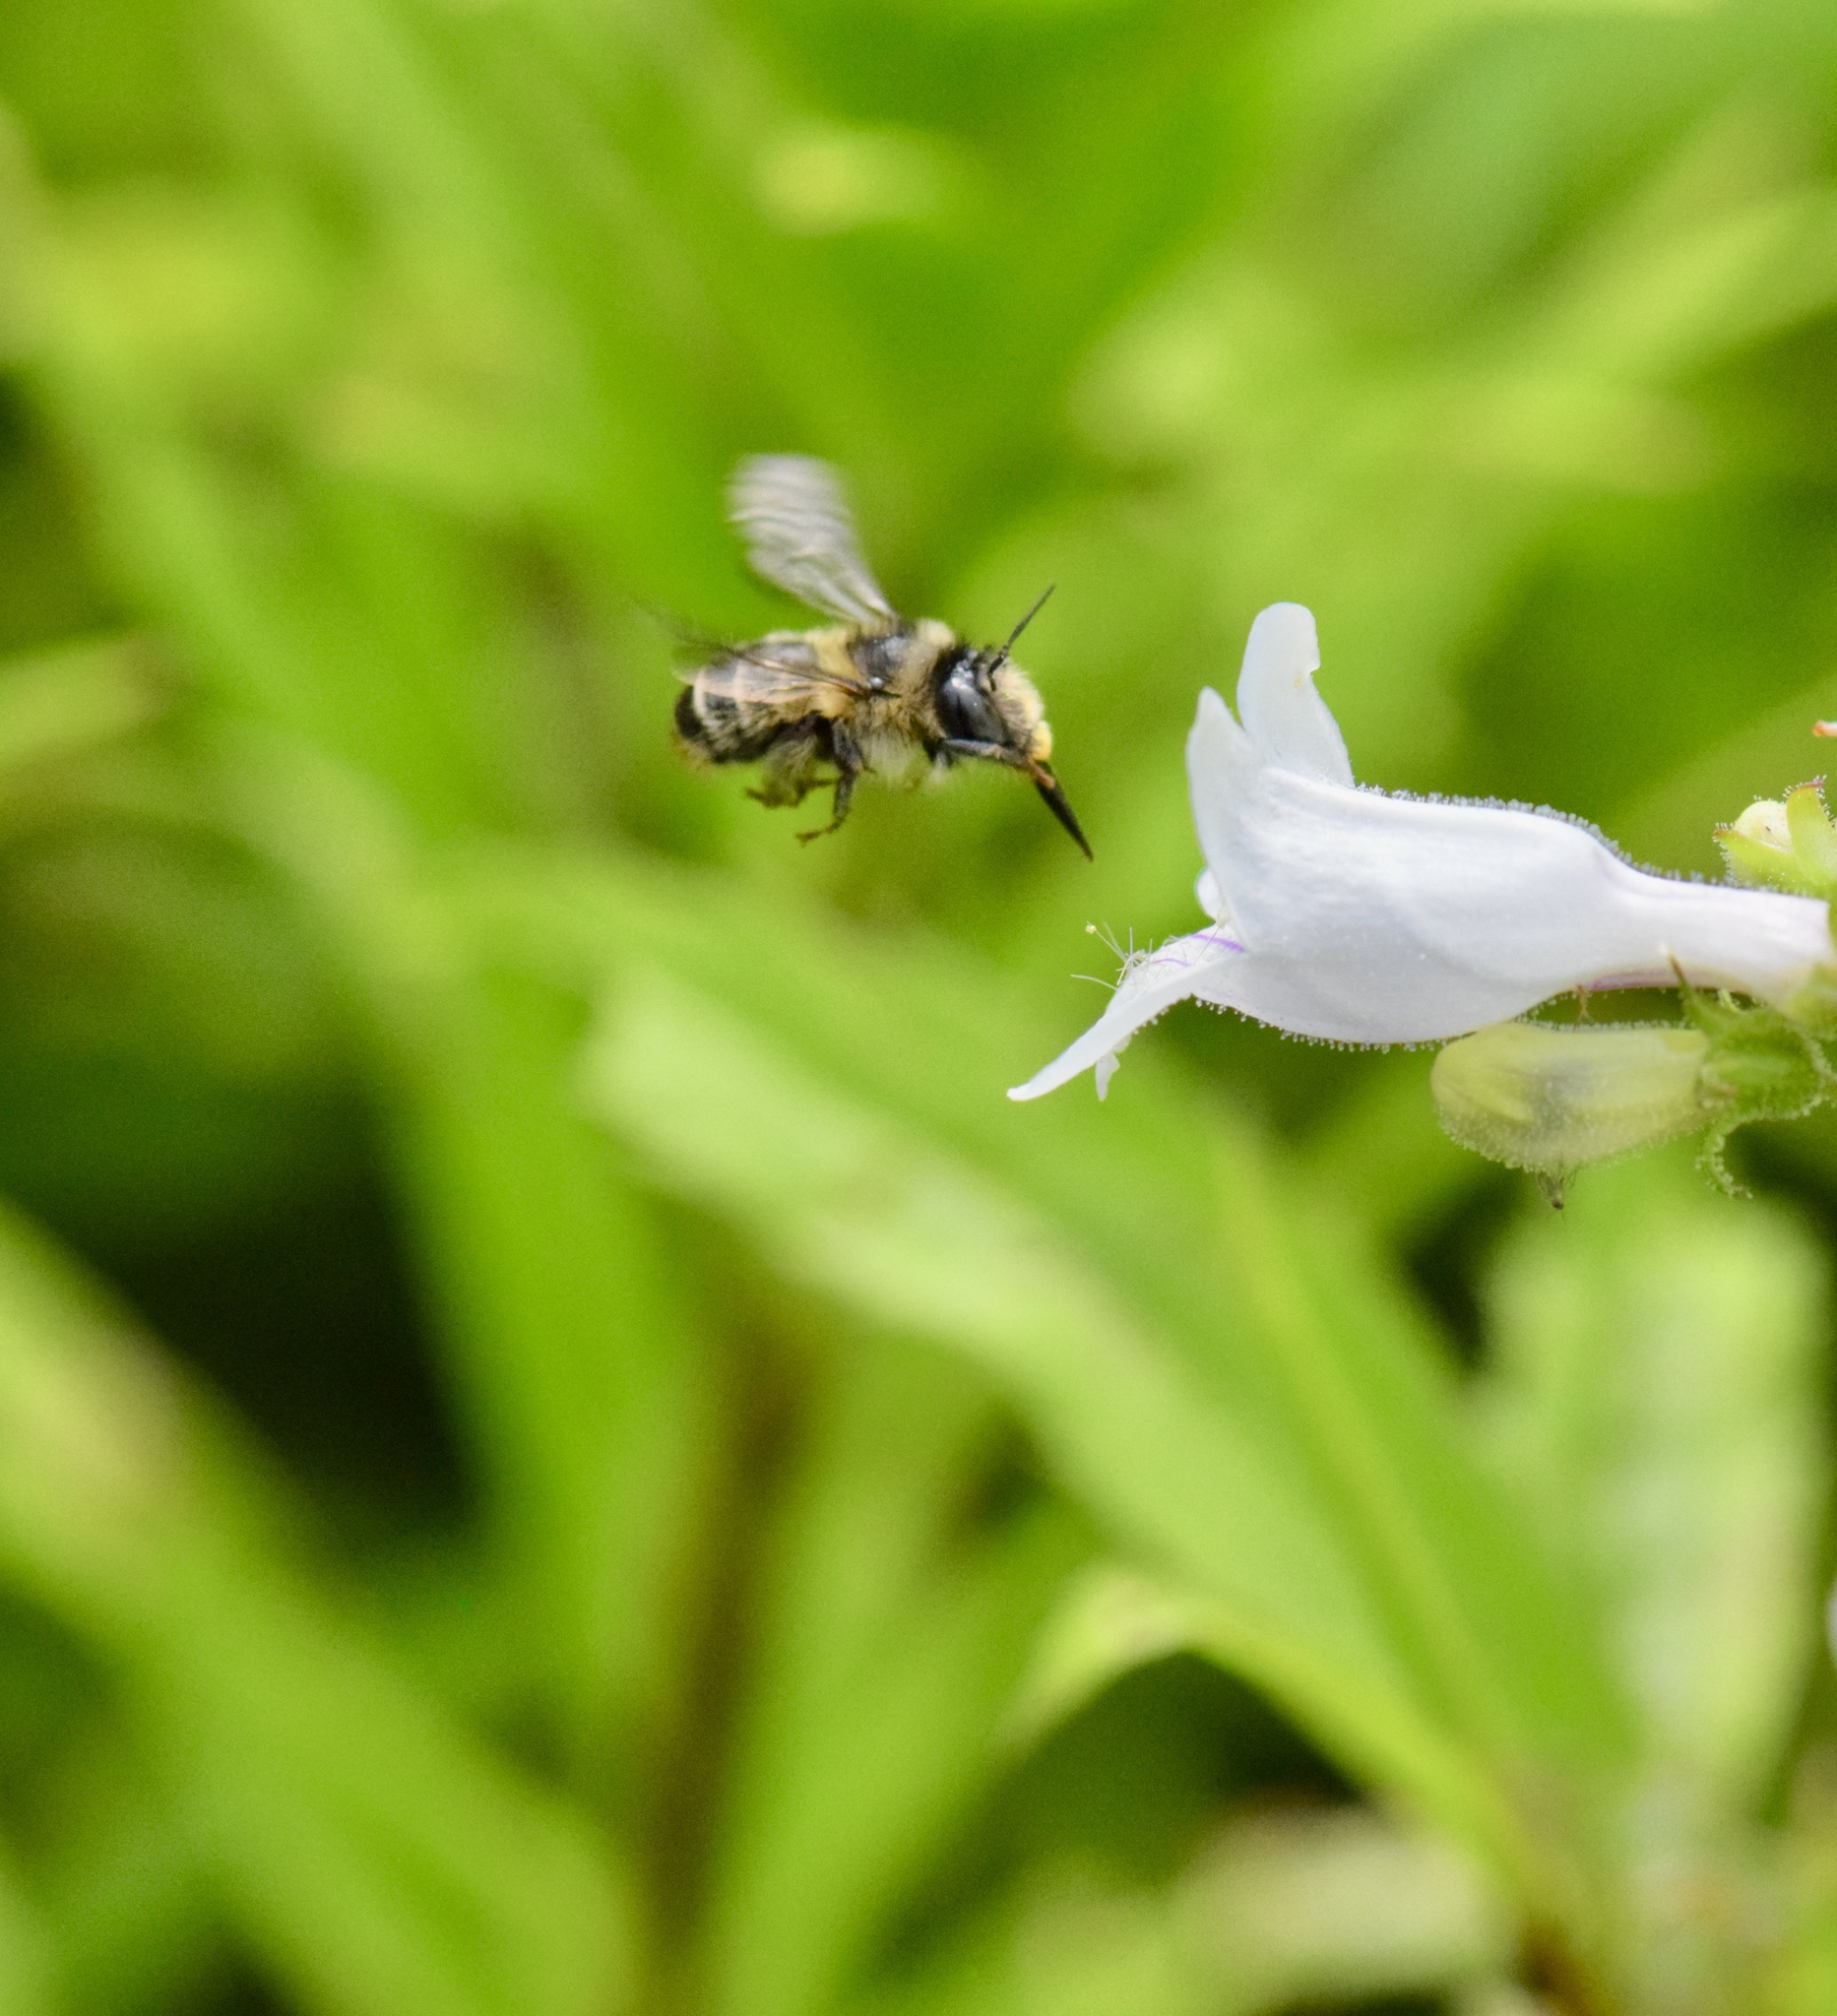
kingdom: Animalia
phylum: Arthropoda
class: Insecta
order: Hymenoptera
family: Apidae
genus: Anthophora
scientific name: Anthophora terminalis
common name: Orange-tipped wood-digger bee
